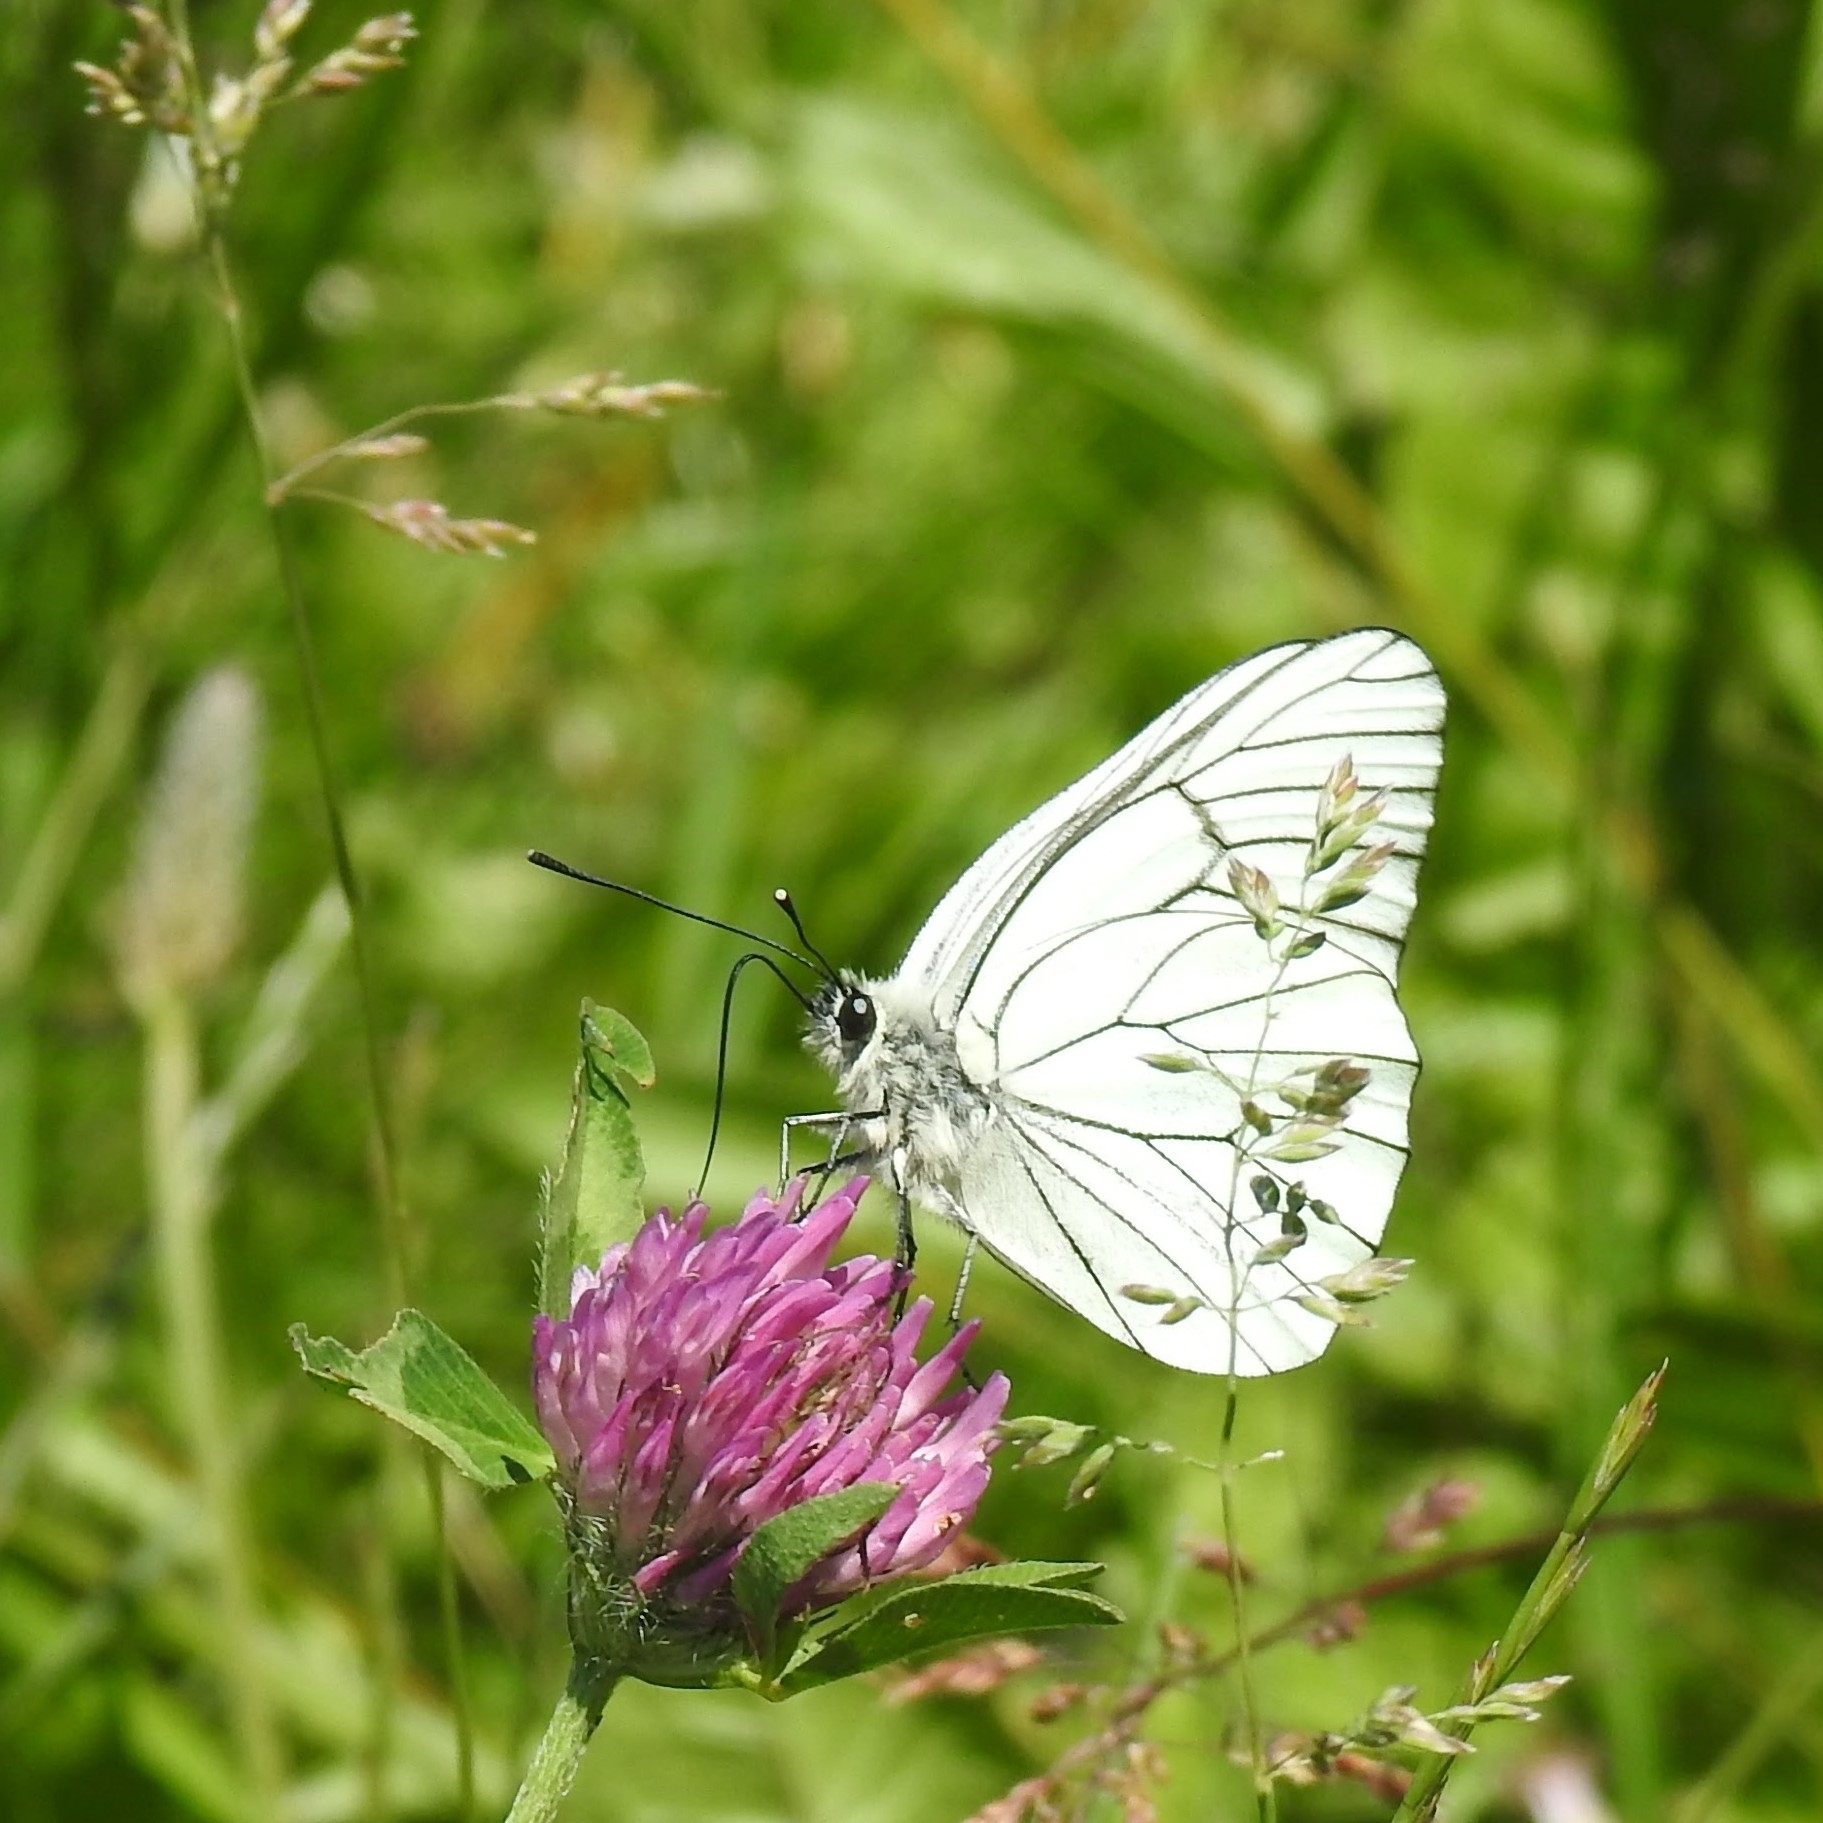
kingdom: Animalia
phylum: Arthropoda
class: Insecta
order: Lepidoptera
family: Pieridae
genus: Aporia
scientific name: Aporia crataegi
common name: Black-veined white
